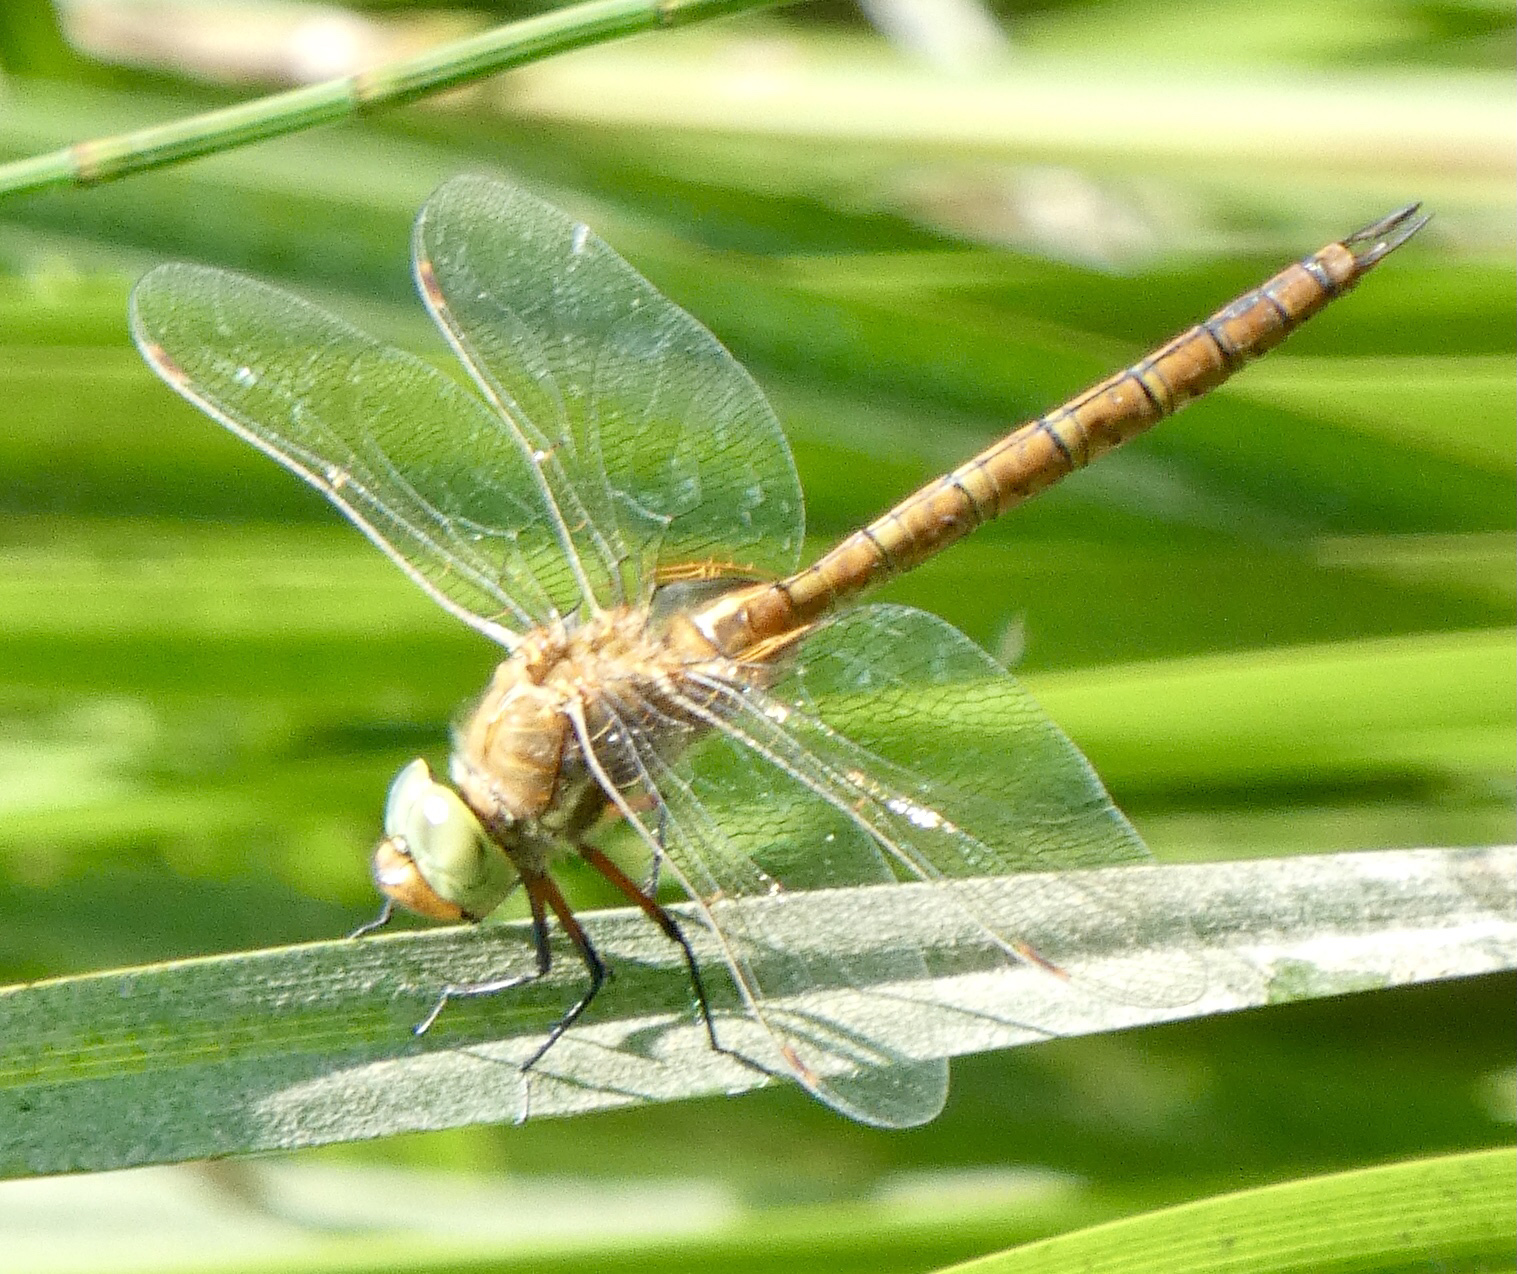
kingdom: Animalia
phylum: Arthropoda
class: Insecta
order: Odonata
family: Aeshnidae
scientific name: Aeshnidae
